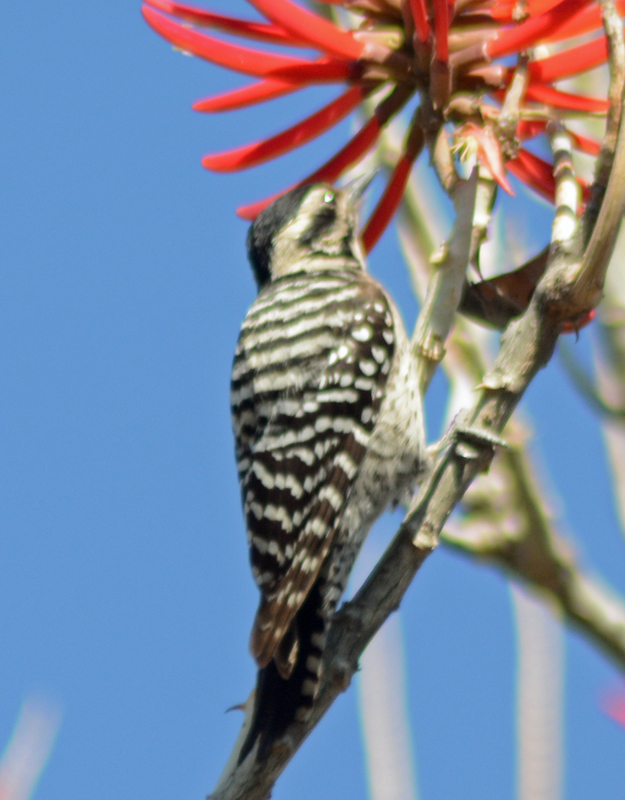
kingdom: Animalia
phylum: Chordata
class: Aves
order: Piciformes
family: Picidae
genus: Dryobates
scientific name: Dryobates scalaris
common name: Ladder-backed woodpecker
